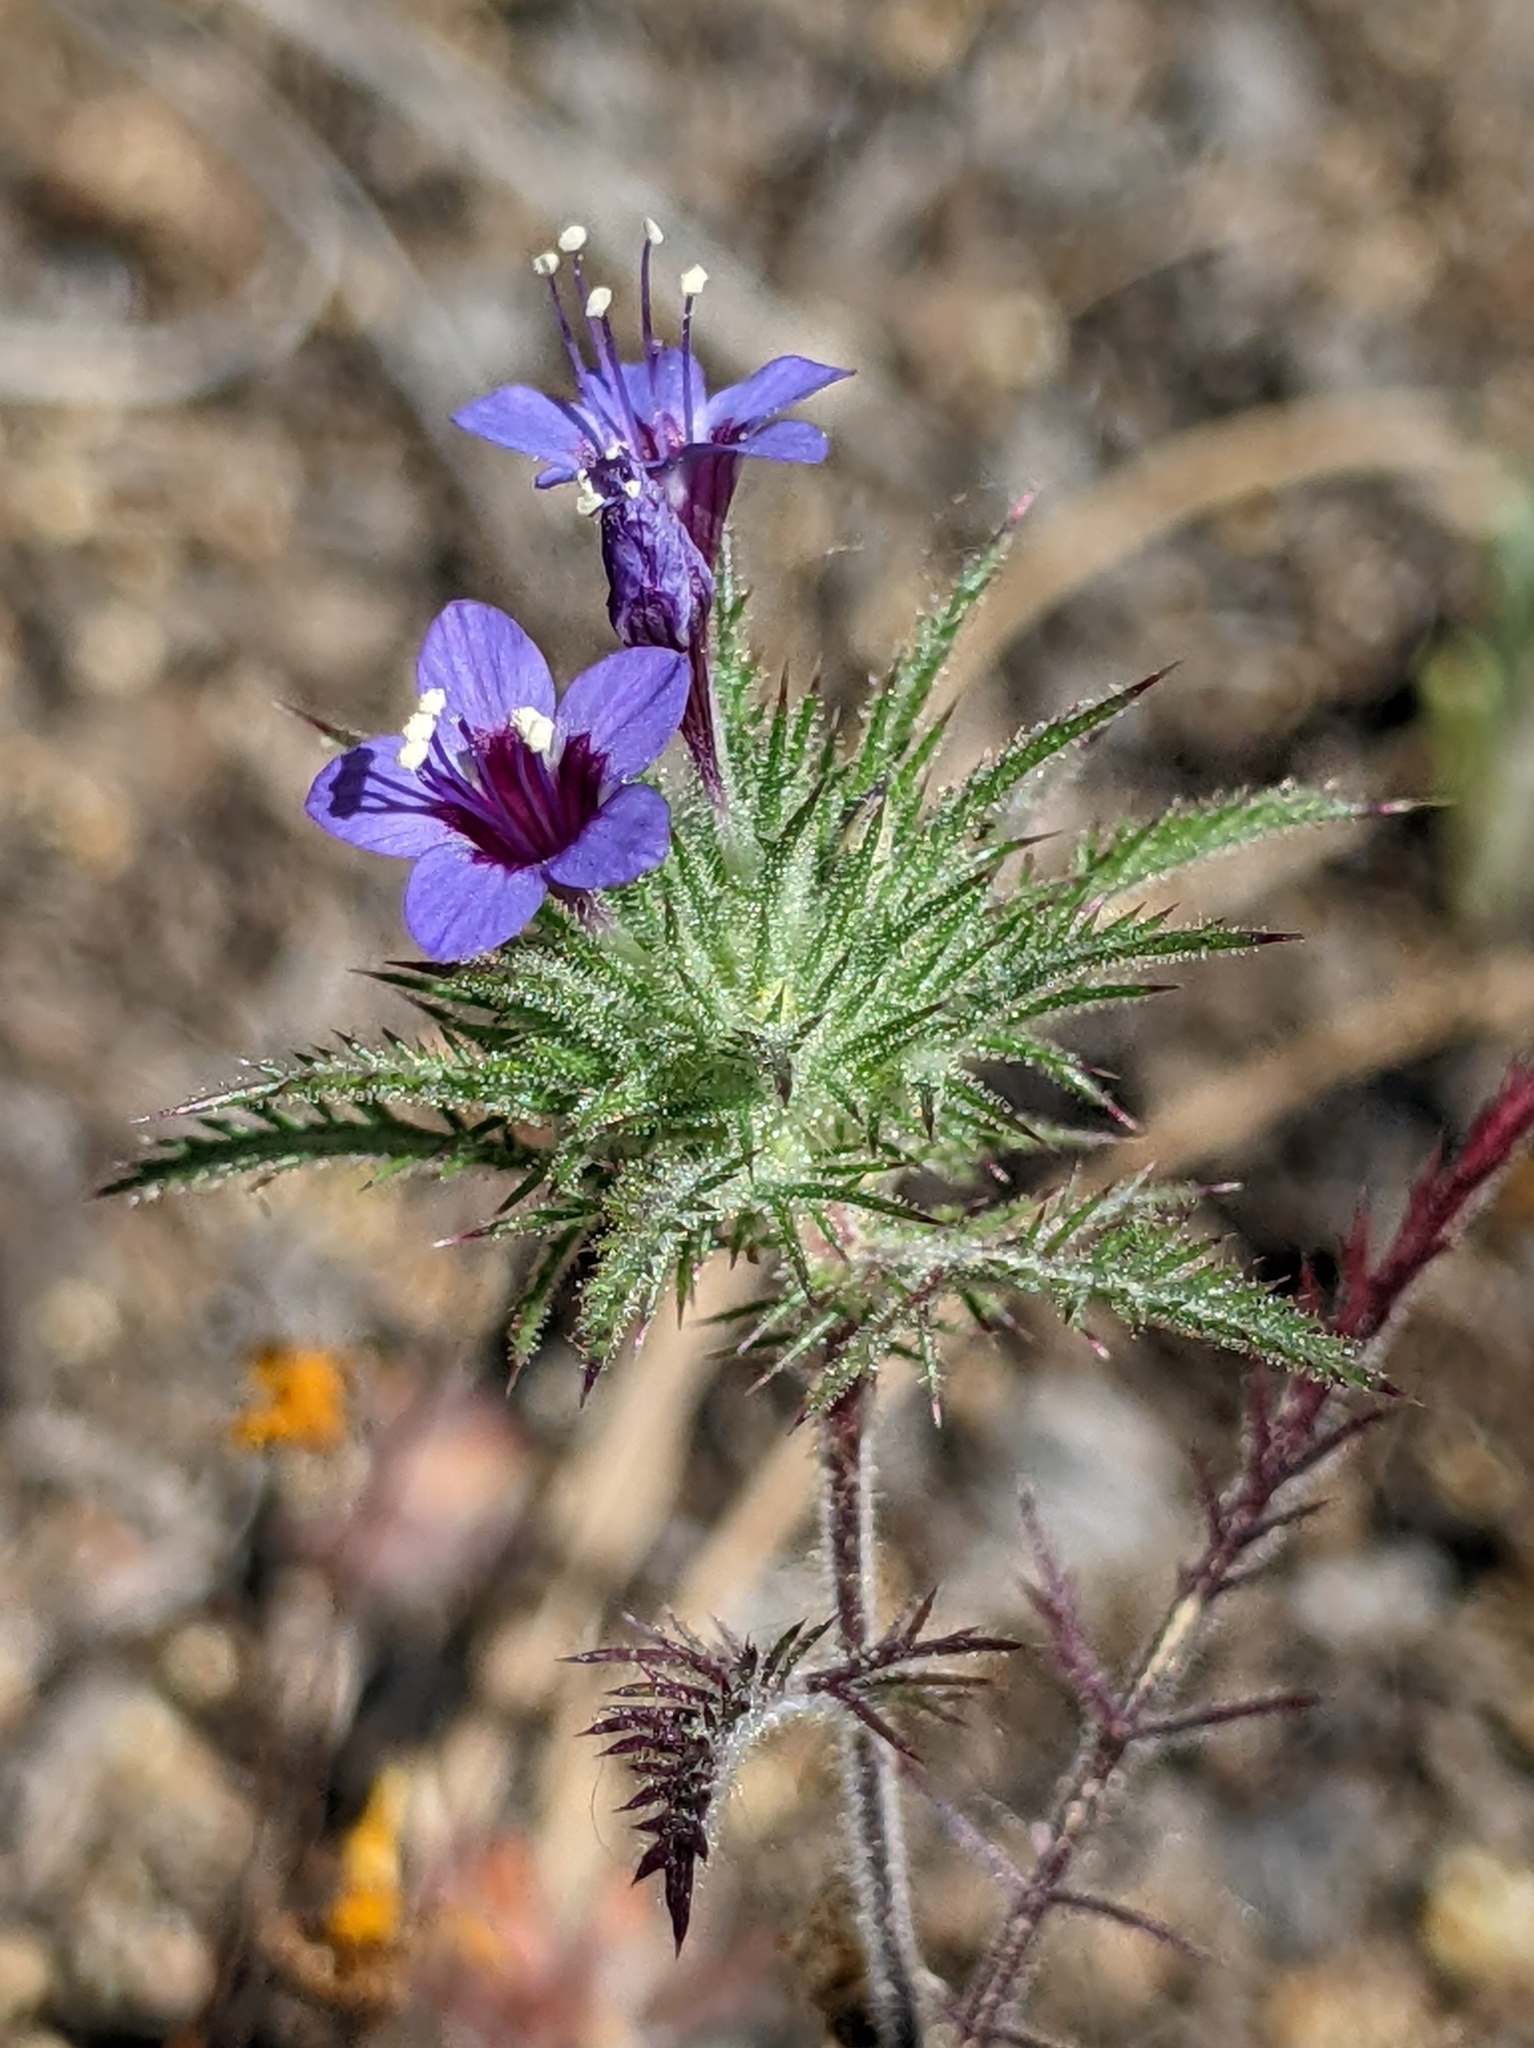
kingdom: Plantae
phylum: Tracheophyta
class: Magnoliopsida
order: Ericales
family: Polemoniaceae
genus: Navarretia
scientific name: Navarretia pubescens
